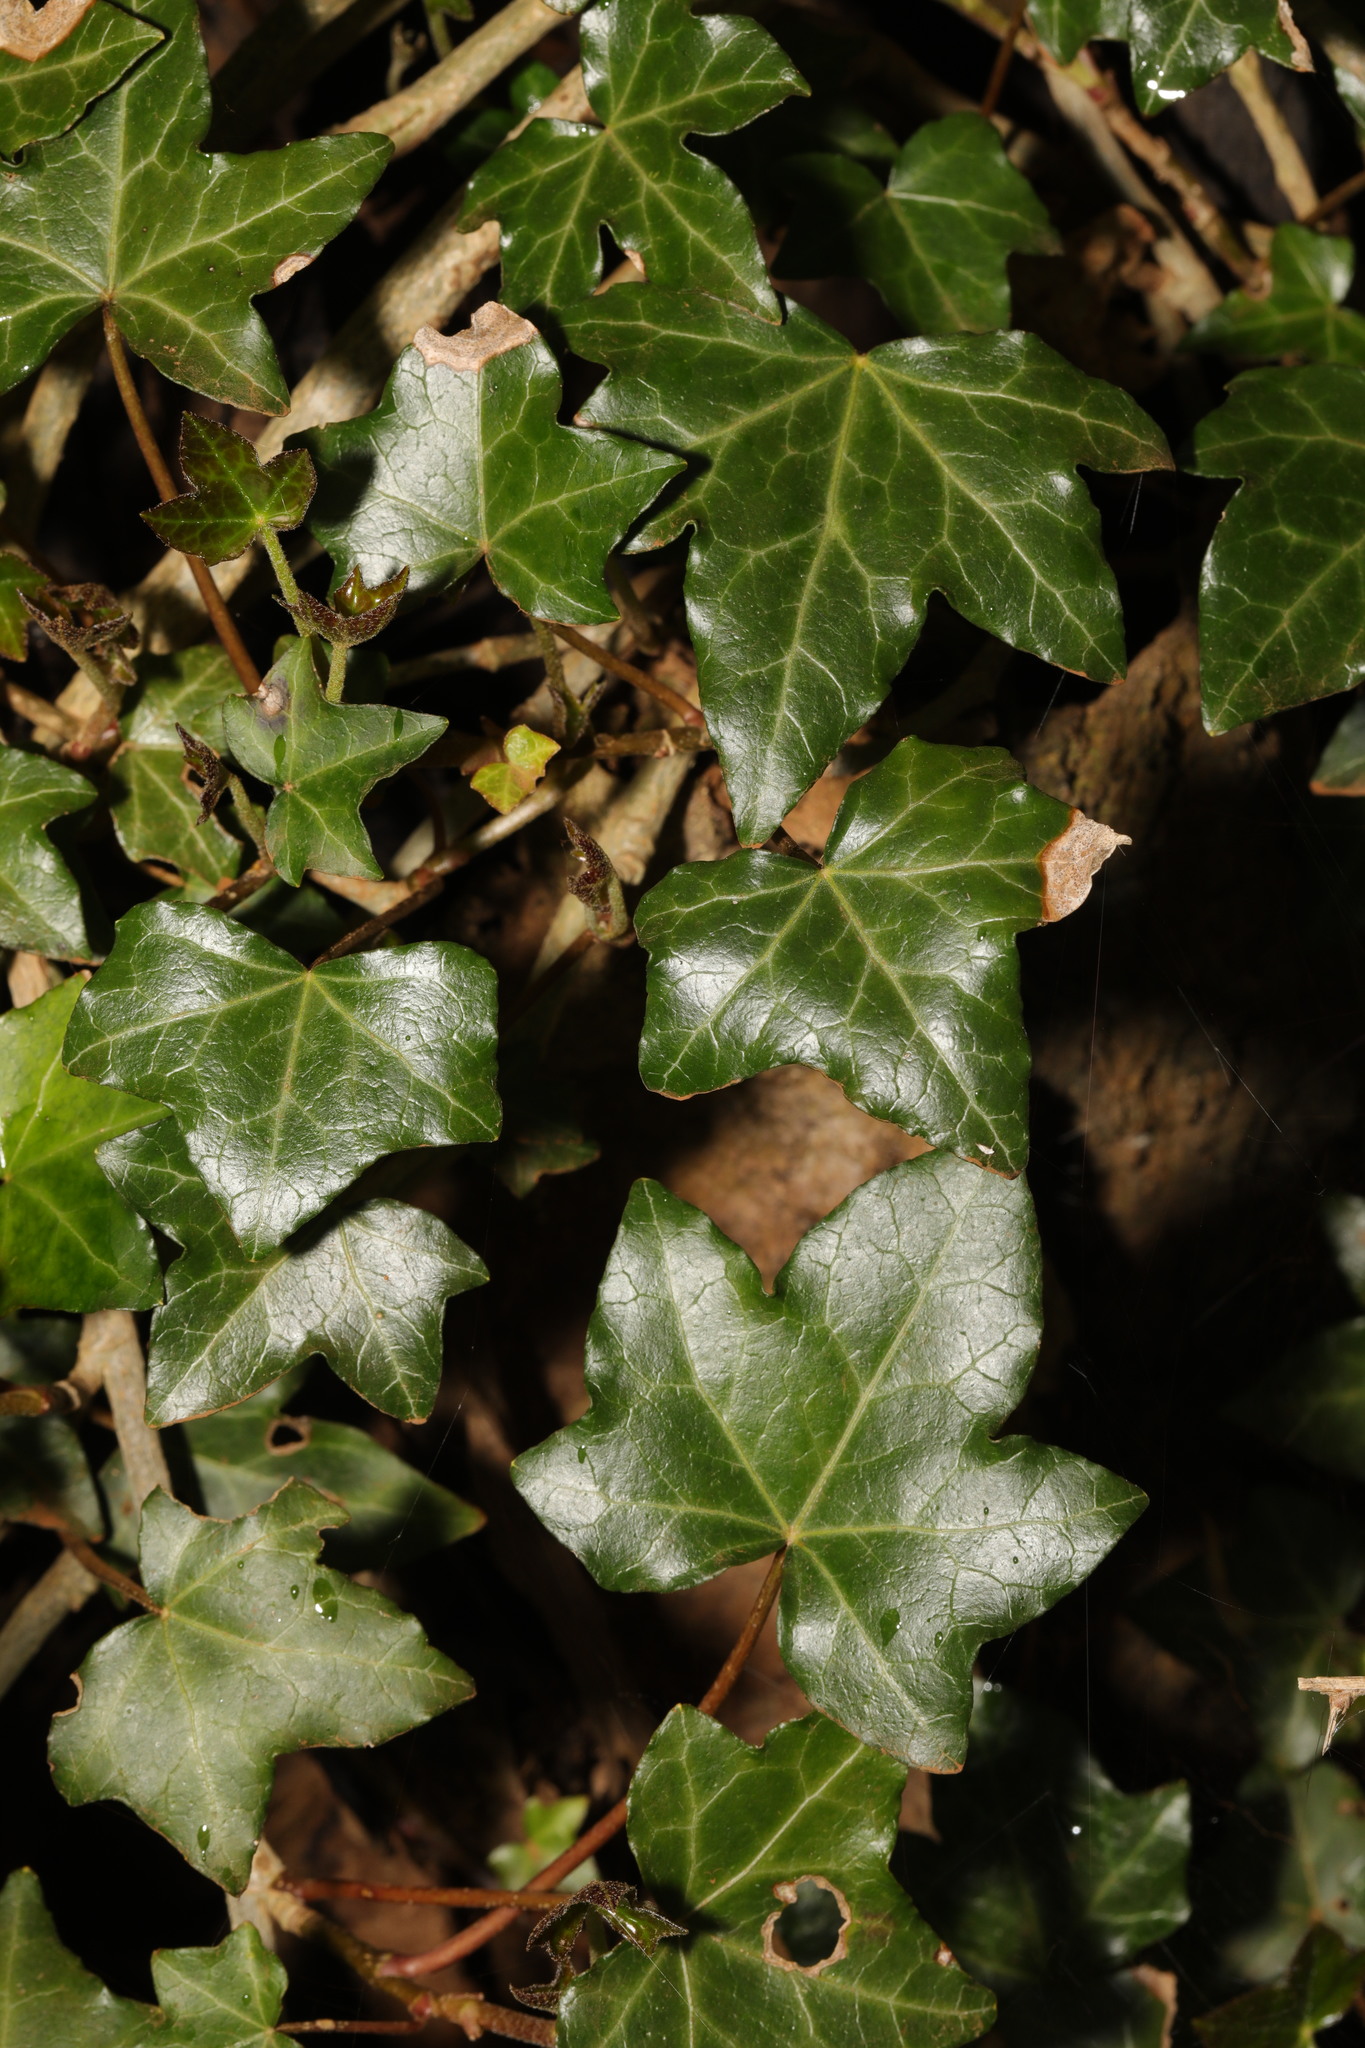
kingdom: Plantae
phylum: Tracheophyta
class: Magnoliopsida
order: Apiales
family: Araliaceae
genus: Hedera
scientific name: Hedera helix
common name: Ivy
